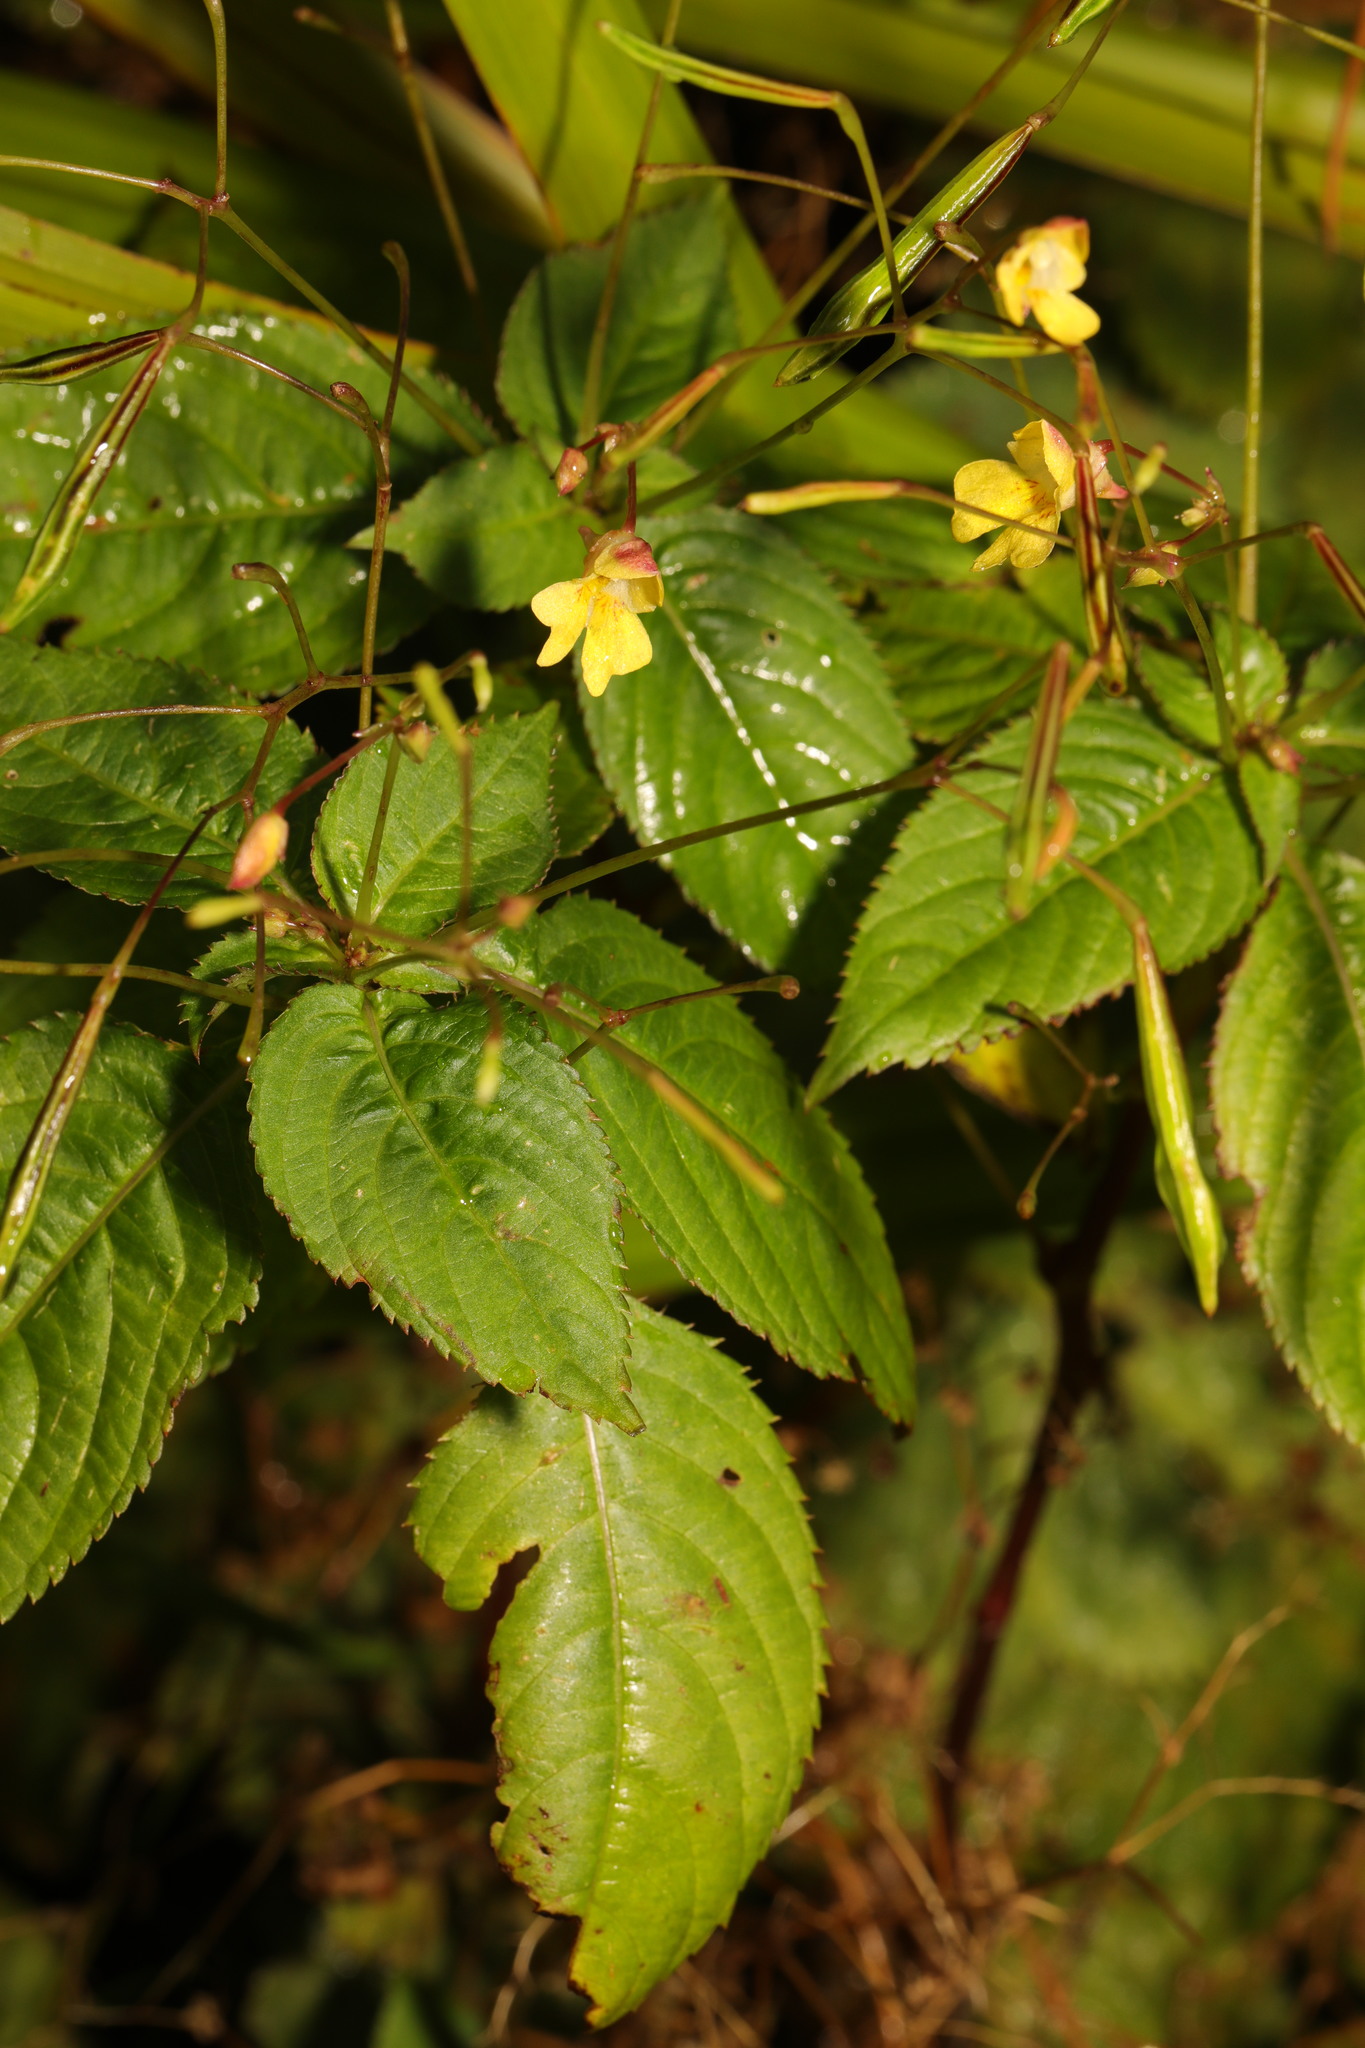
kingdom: Plantae
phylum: Tracheophyta
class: Magnoliopsida
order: Ericales
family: Balsaminaceae
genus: Impatiens
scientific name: Impatiens parviflora
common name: Small balsam
